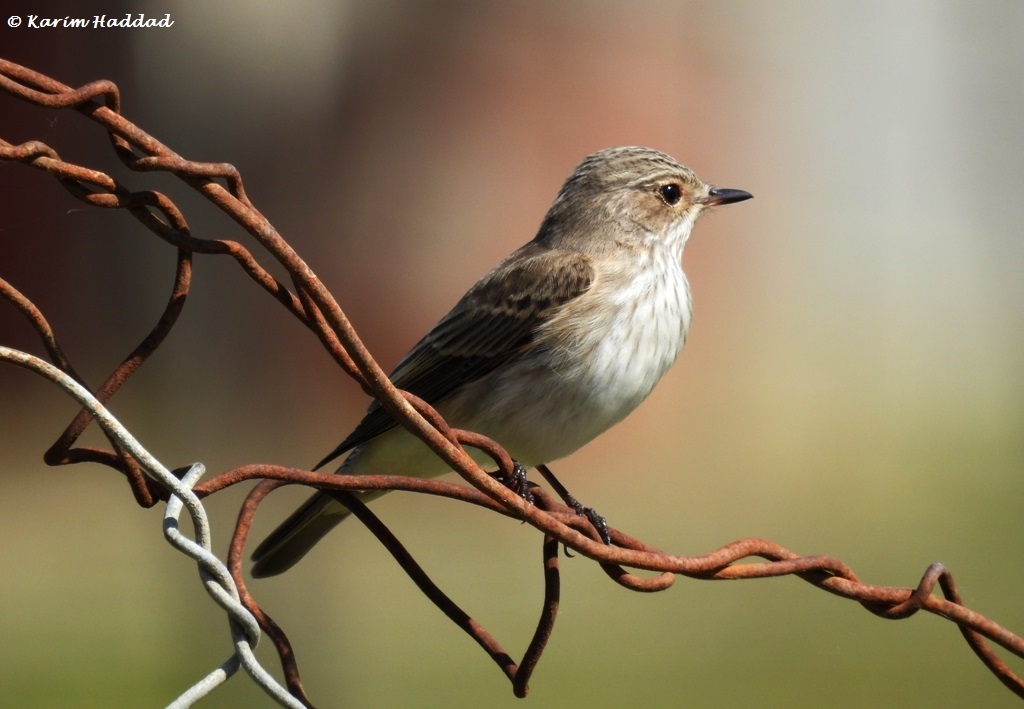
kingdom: Animalia
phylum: Chordata
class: Aves
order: Passeriformes
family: Muscicapidae
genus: Muscicapa
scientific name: Muscicapa striata
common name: Spotted flycatcher
